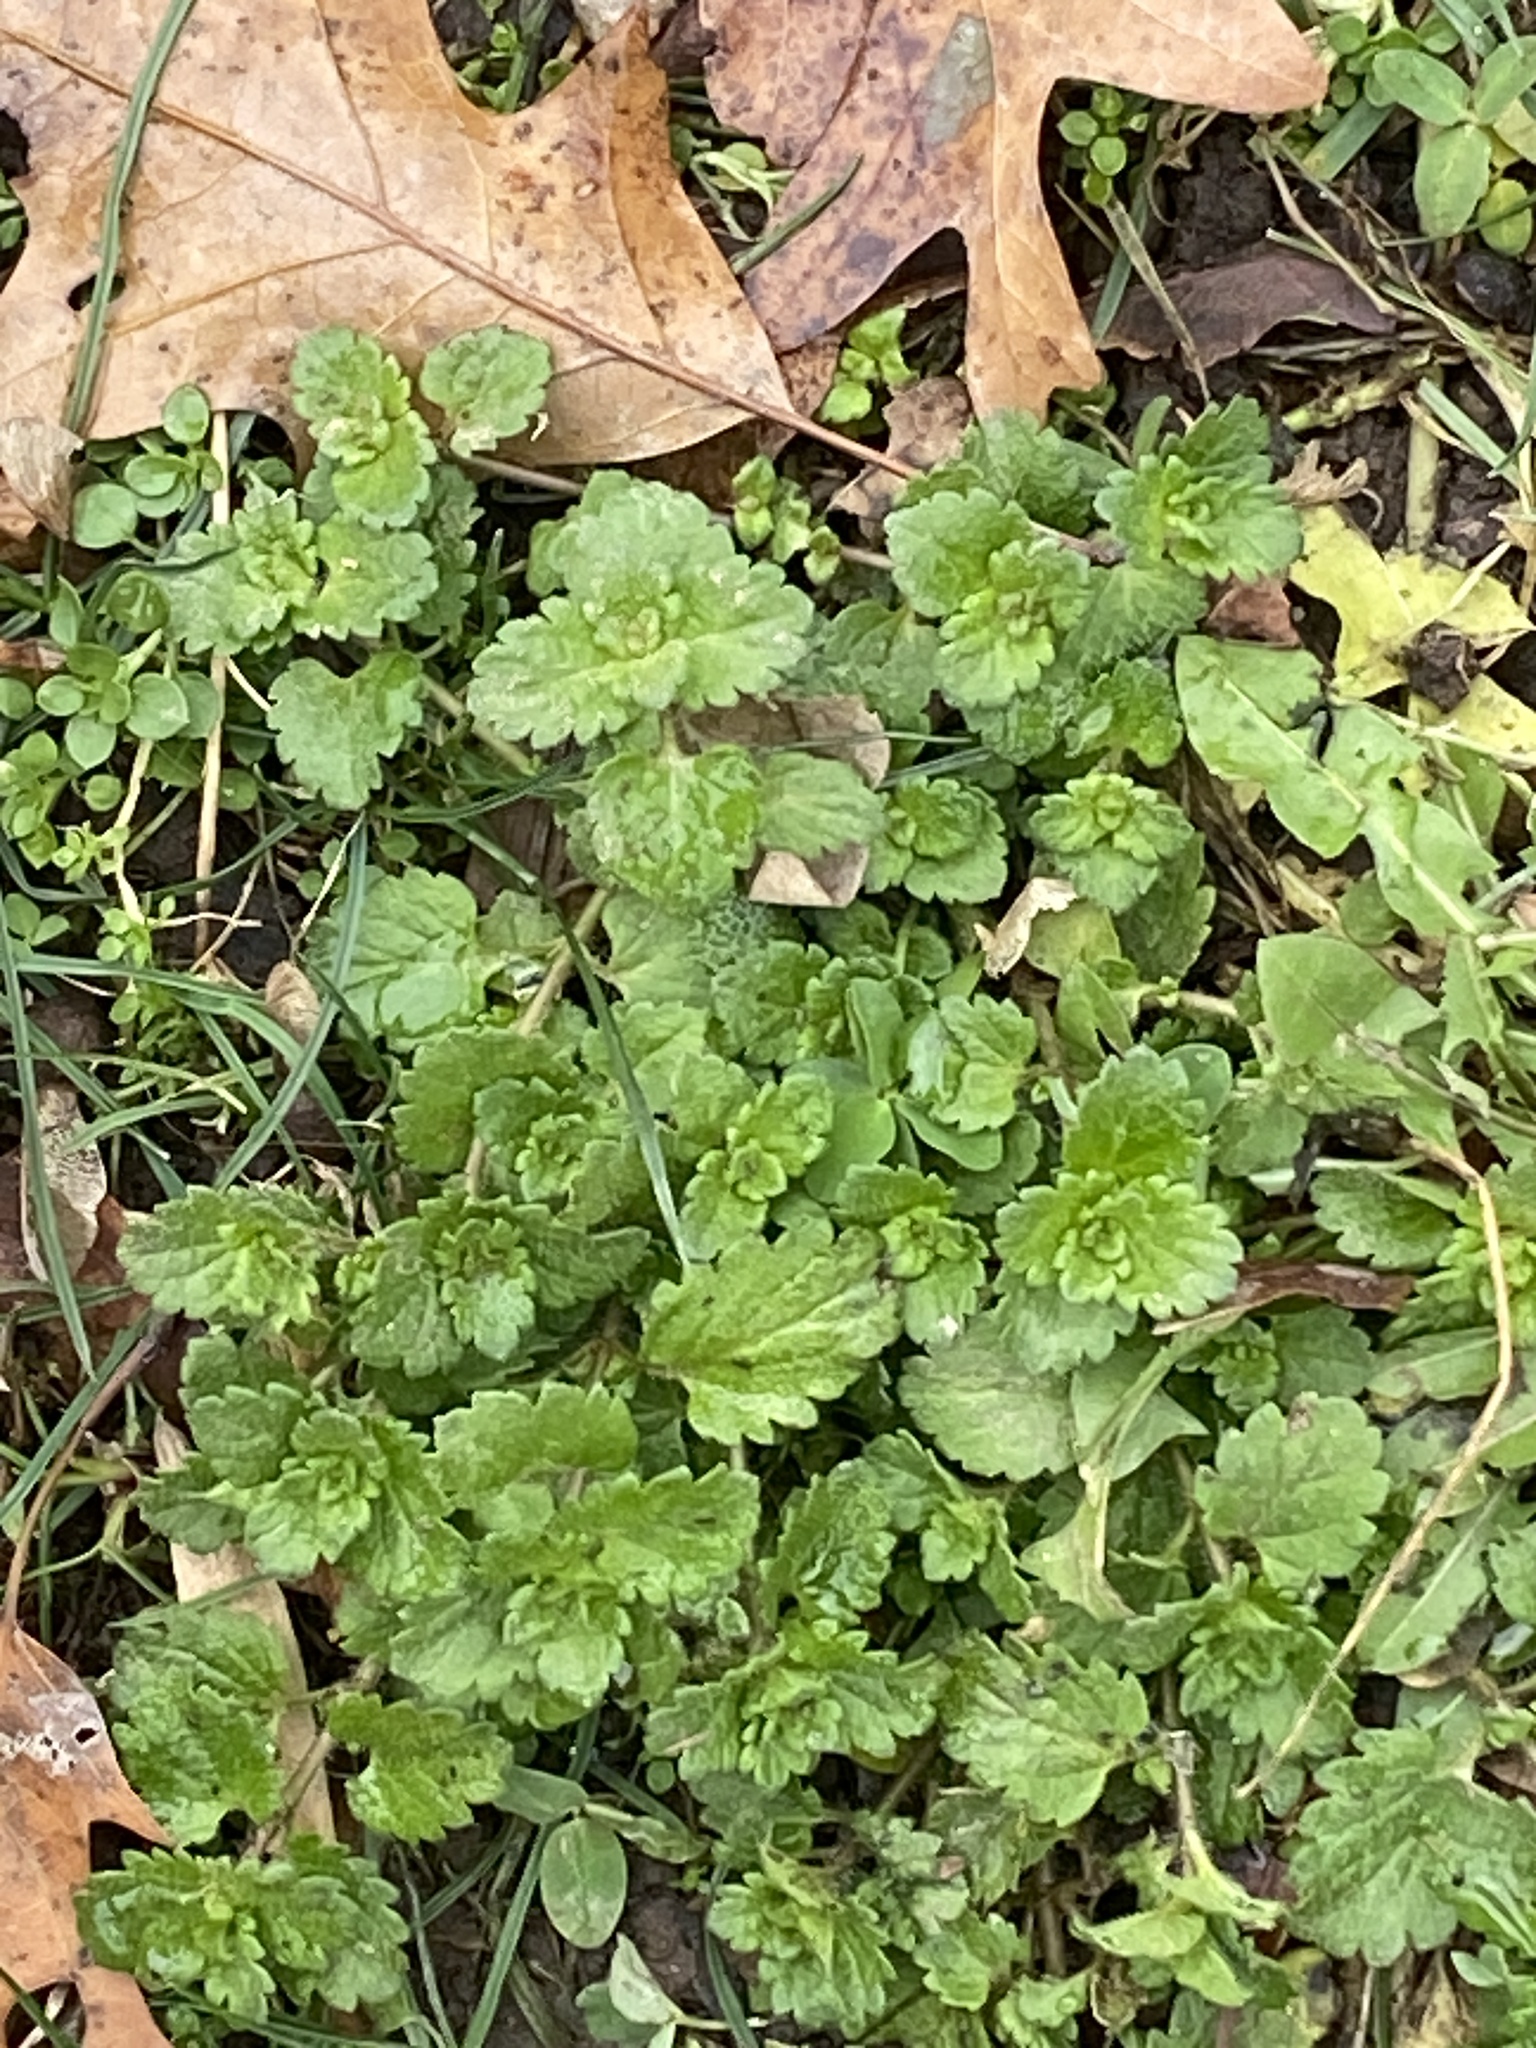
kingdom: Plantae
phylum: Tracheophyta
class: Magnoliopsida
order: Lamiales
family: Plantaginaceae
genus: Veronica
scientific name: Veronica persica
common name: Common field-speedwell
